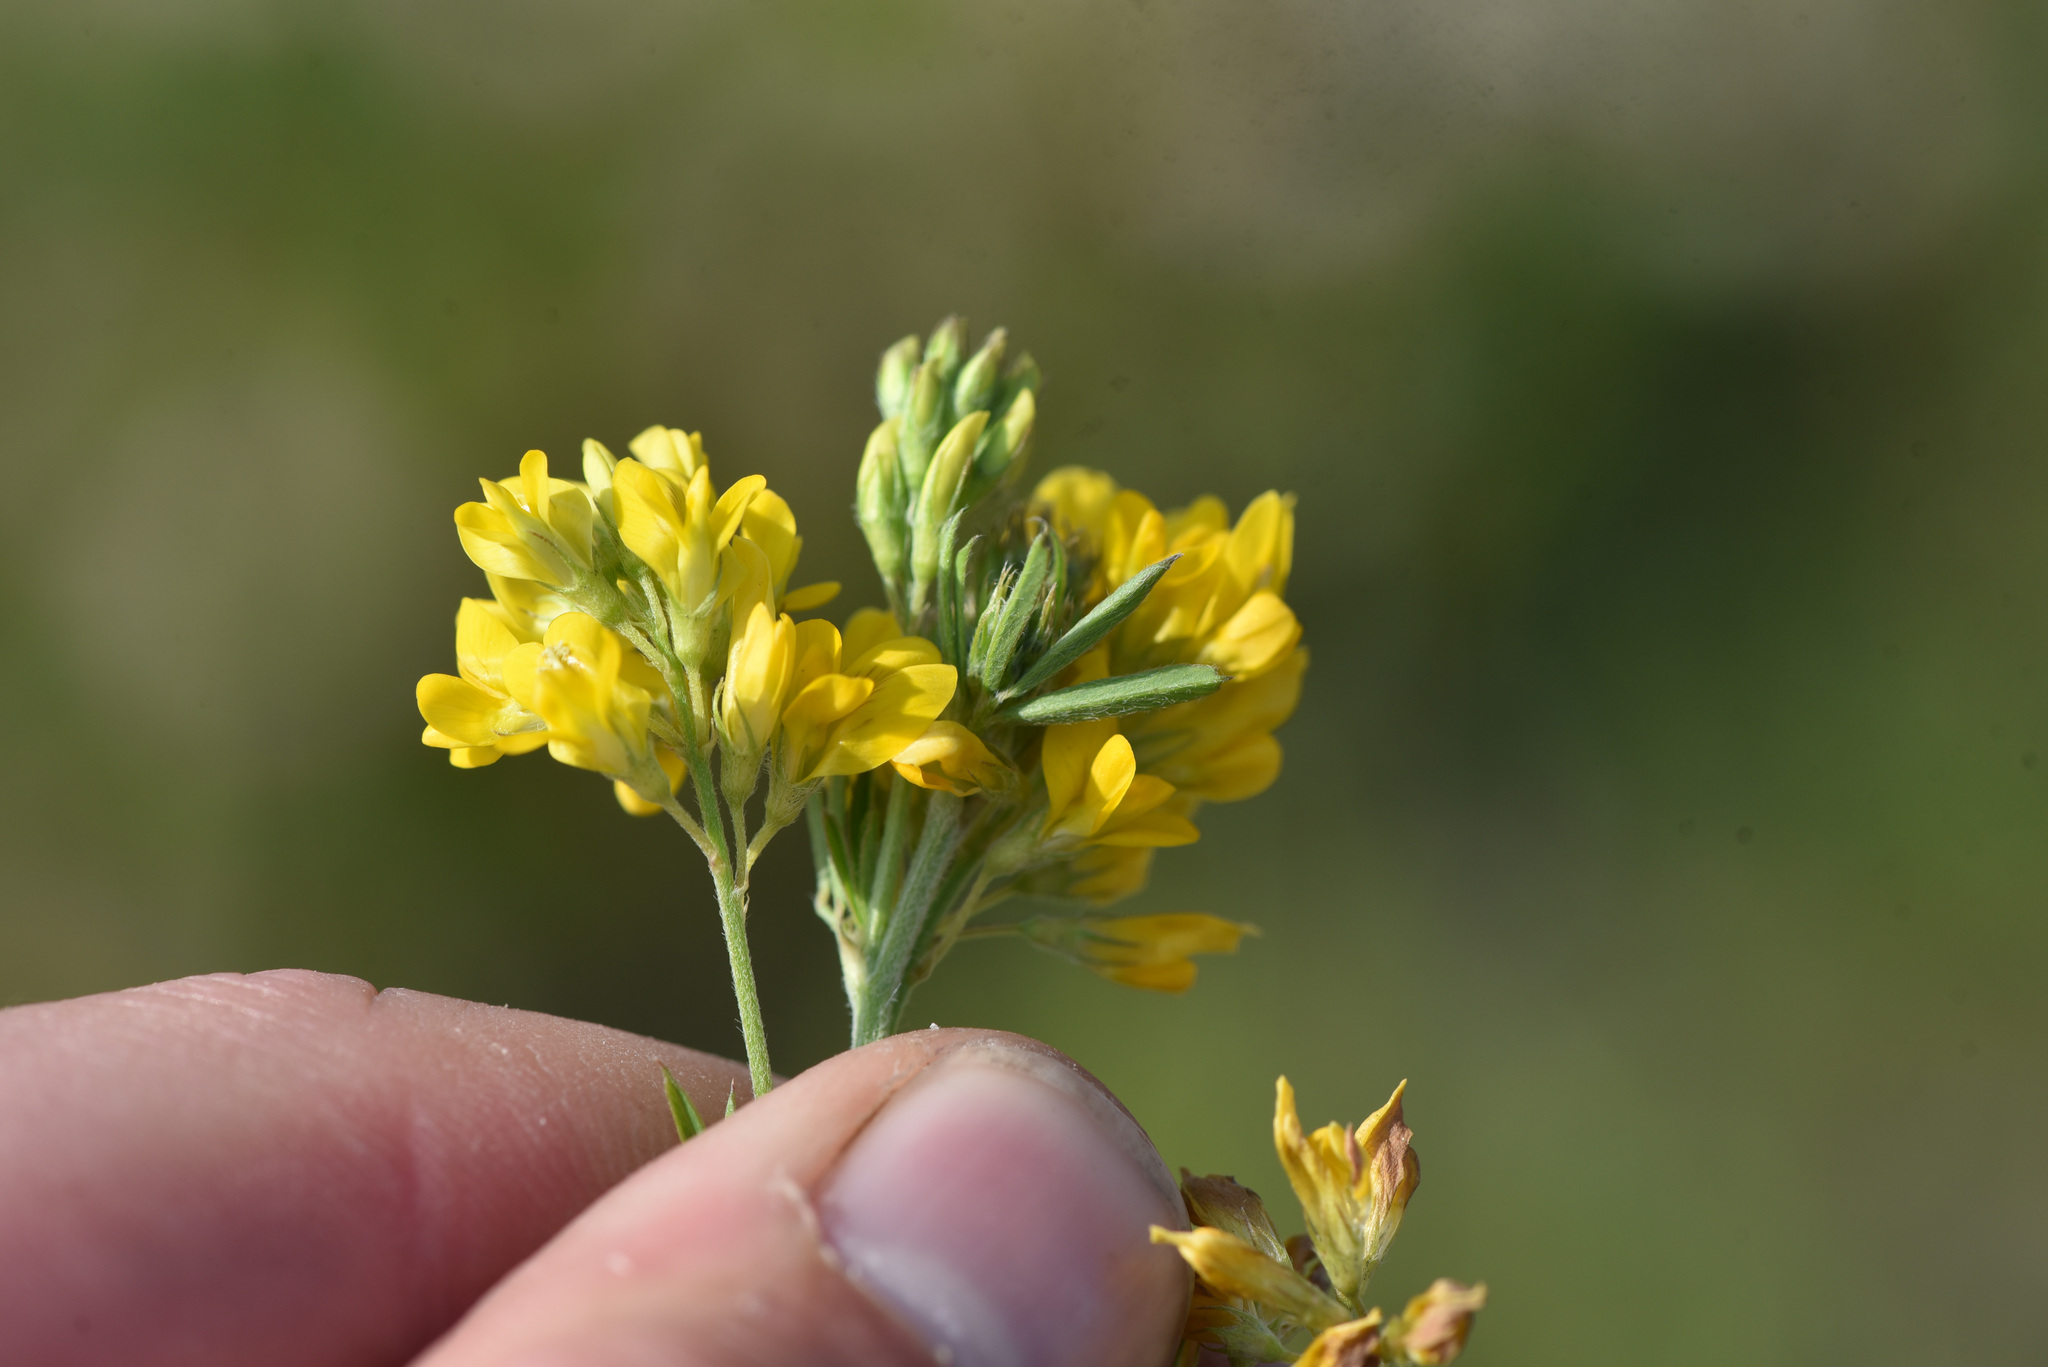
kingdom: Plantae
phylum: Tracheophyta
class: Magnoliopsida
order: Fabales
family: Fabaceae
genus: Medicago
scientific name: Medicago falcata
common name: Sickle medick
